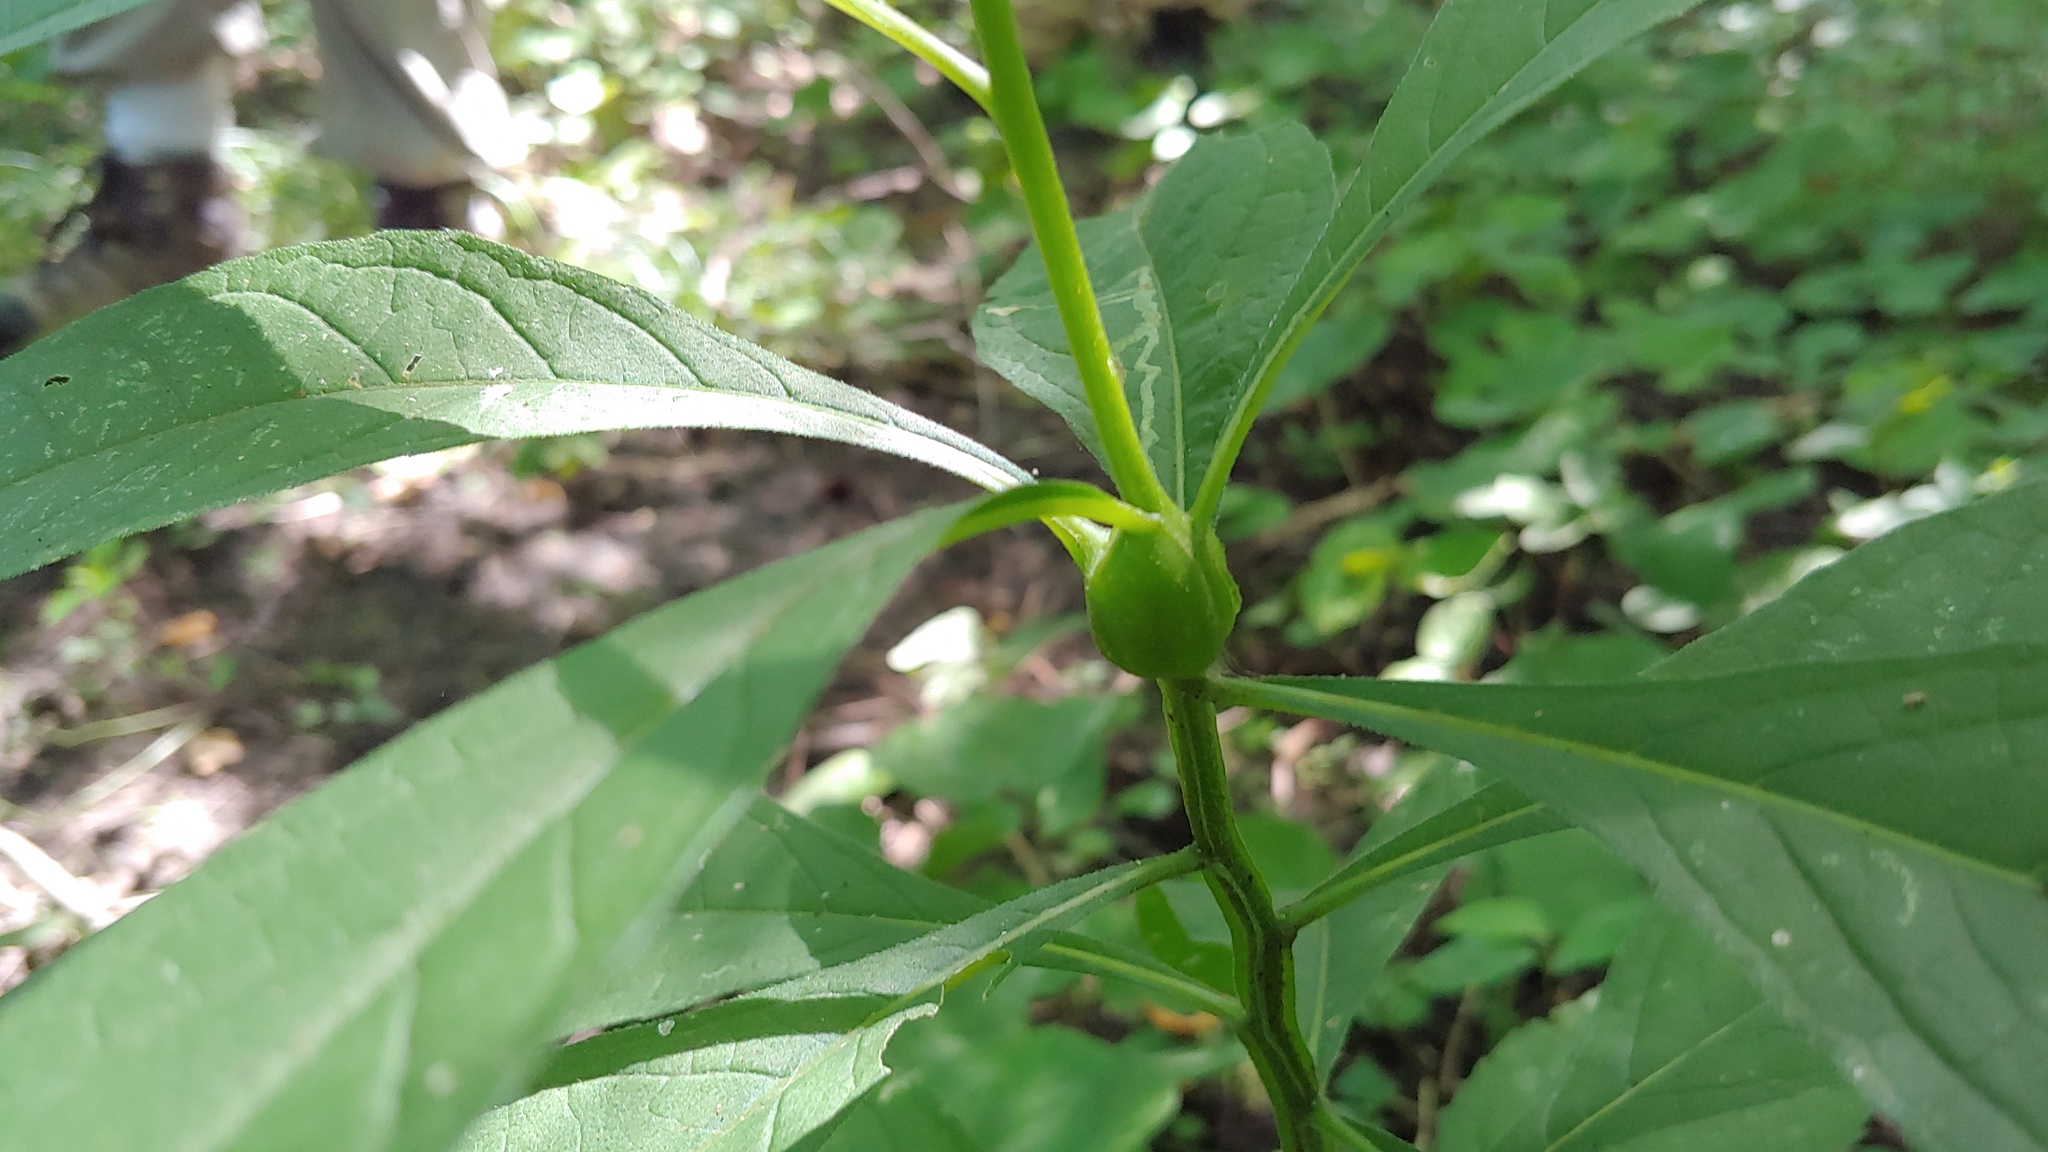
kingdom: Animalia
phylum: Arthropoda
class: Insecta
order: Diptera
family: Cecidomyiidae
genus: Neolasioptera
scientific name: Neolasioptera verbesinae
